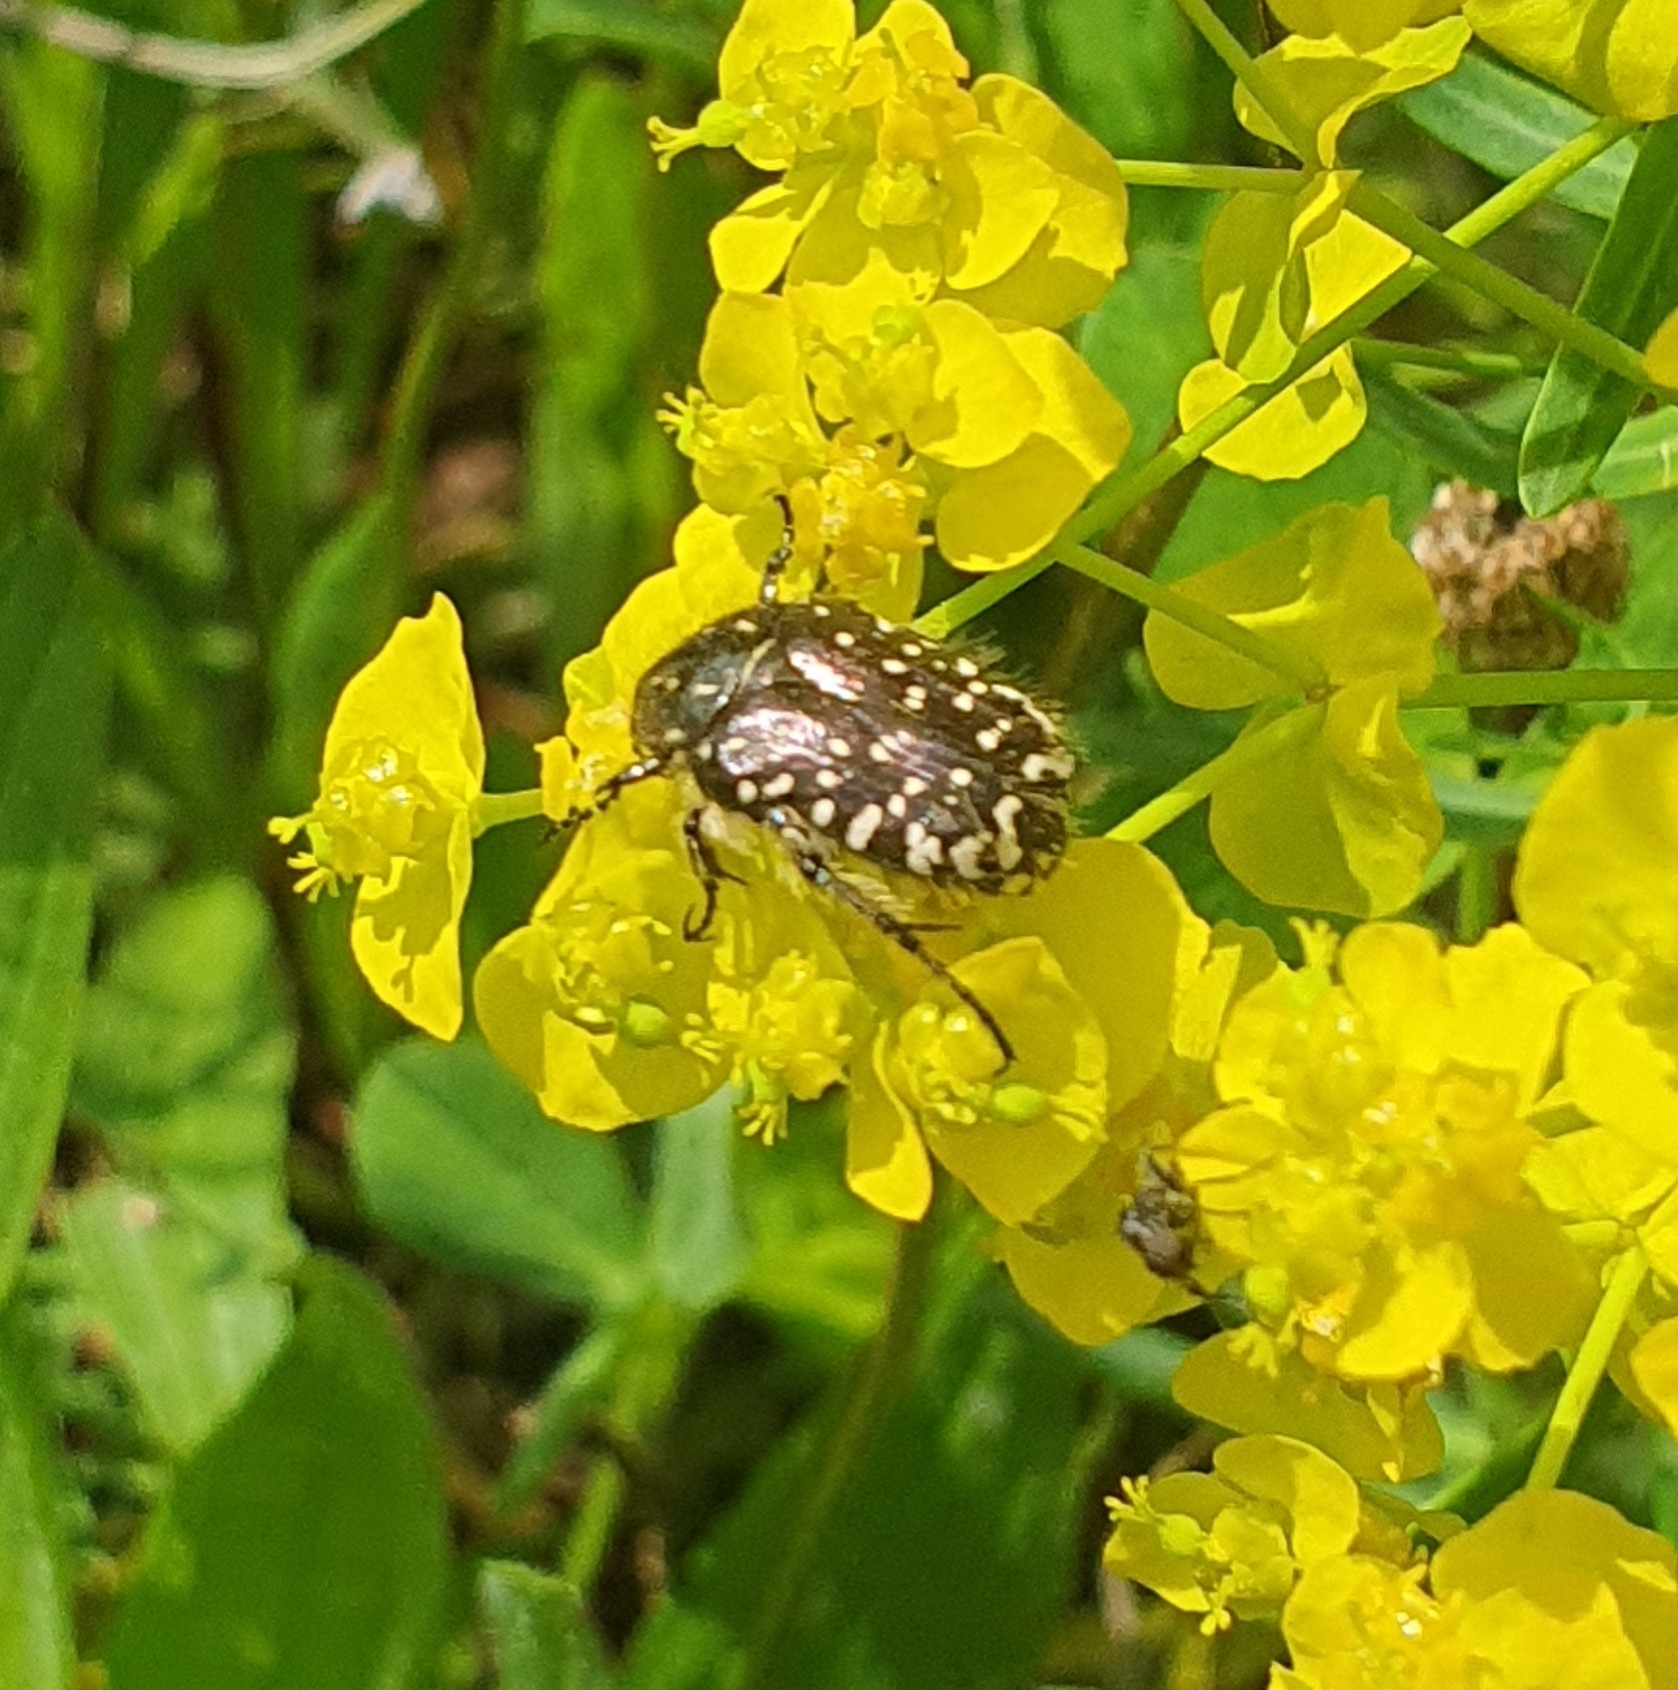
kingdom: Animalia
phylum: Arthropoda
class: Insecta
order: Coleoptera
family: Scarabaeidae
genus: Oxythyrea
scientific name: Oxythyrea funesta
